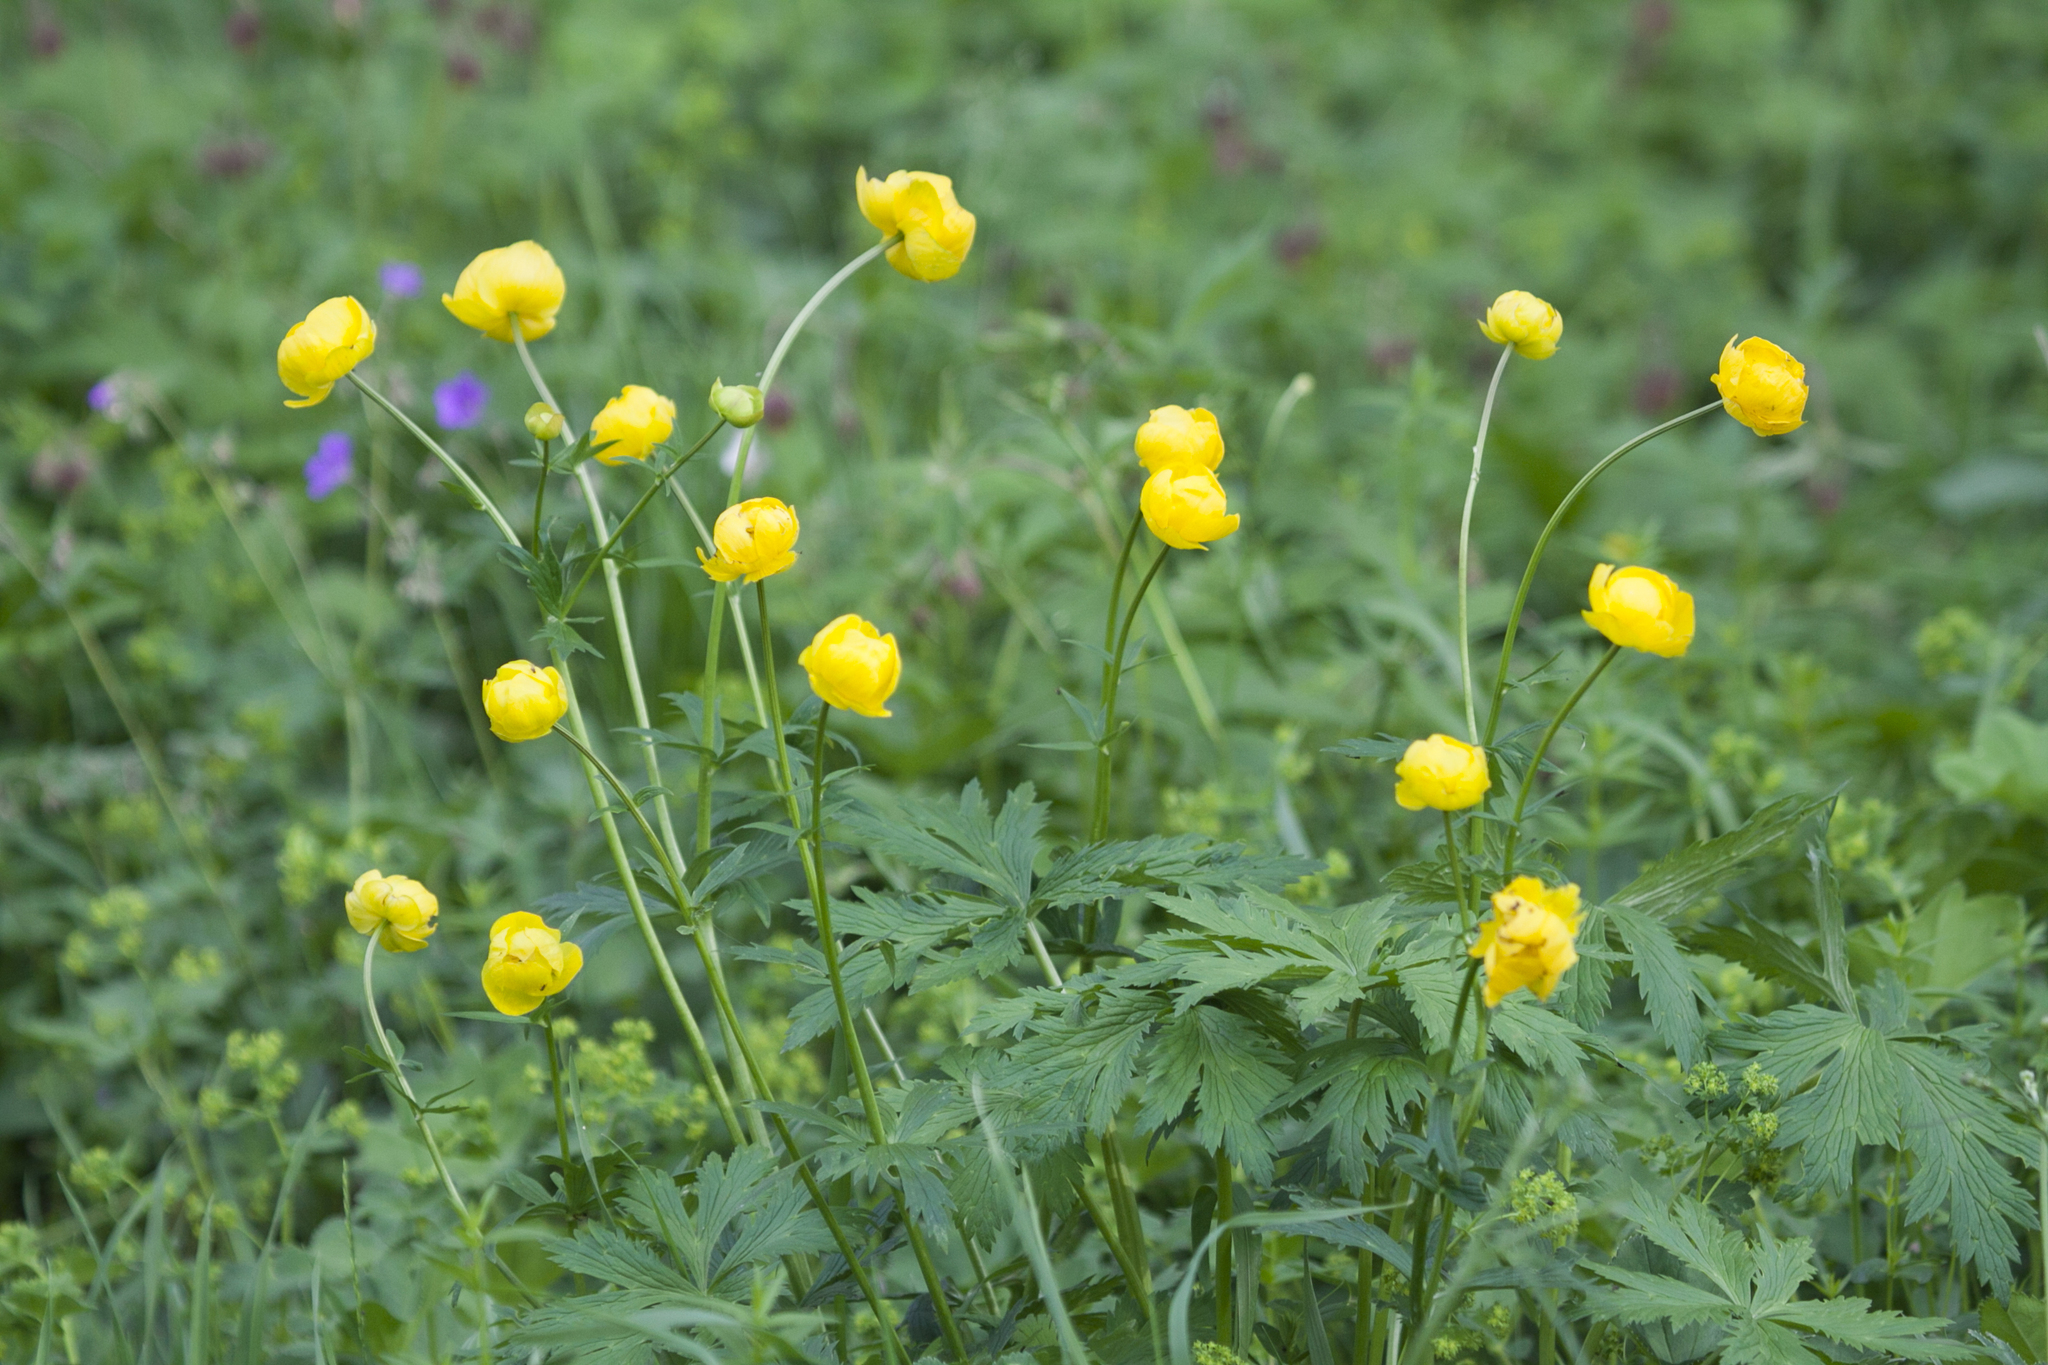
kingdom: Plantae
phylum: Tracheophyta
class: Magnoliopsida
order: Ranunculales
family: Ranunculaceae
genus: Trollius
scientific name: Trollius europaeus
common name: European globeflower
